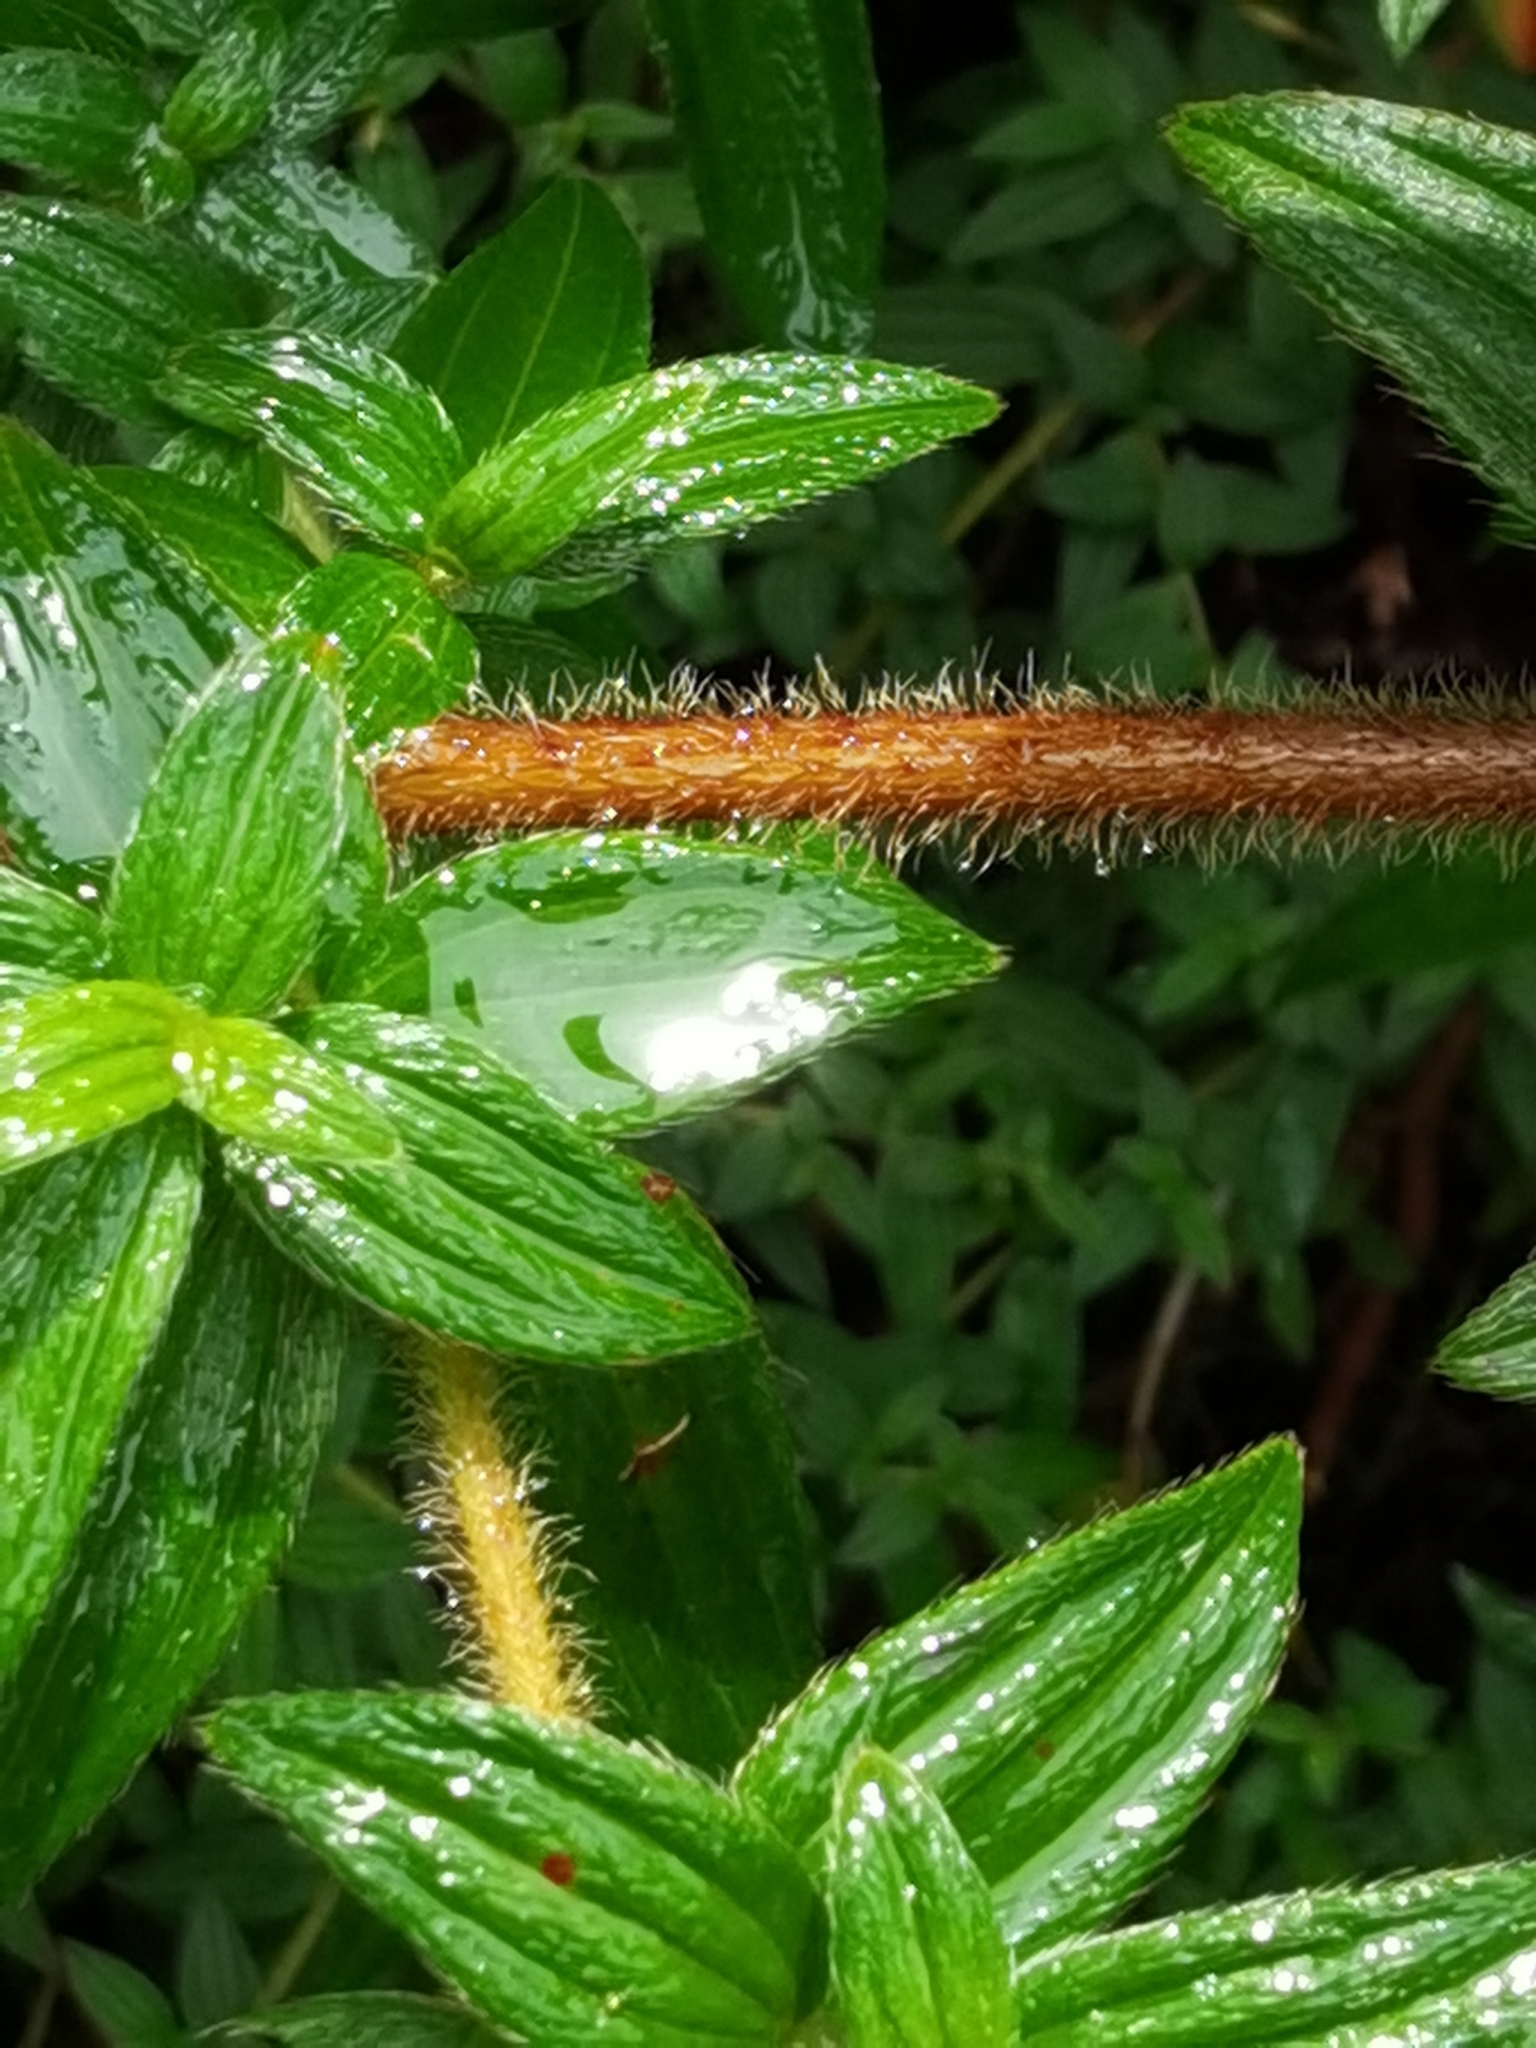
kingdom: Plantae
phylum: Tracheophyta
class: Magnoliopsida
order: Myrtales
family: Melastomataceae
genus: Monochaetum
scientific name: Monochaetum floribundum
